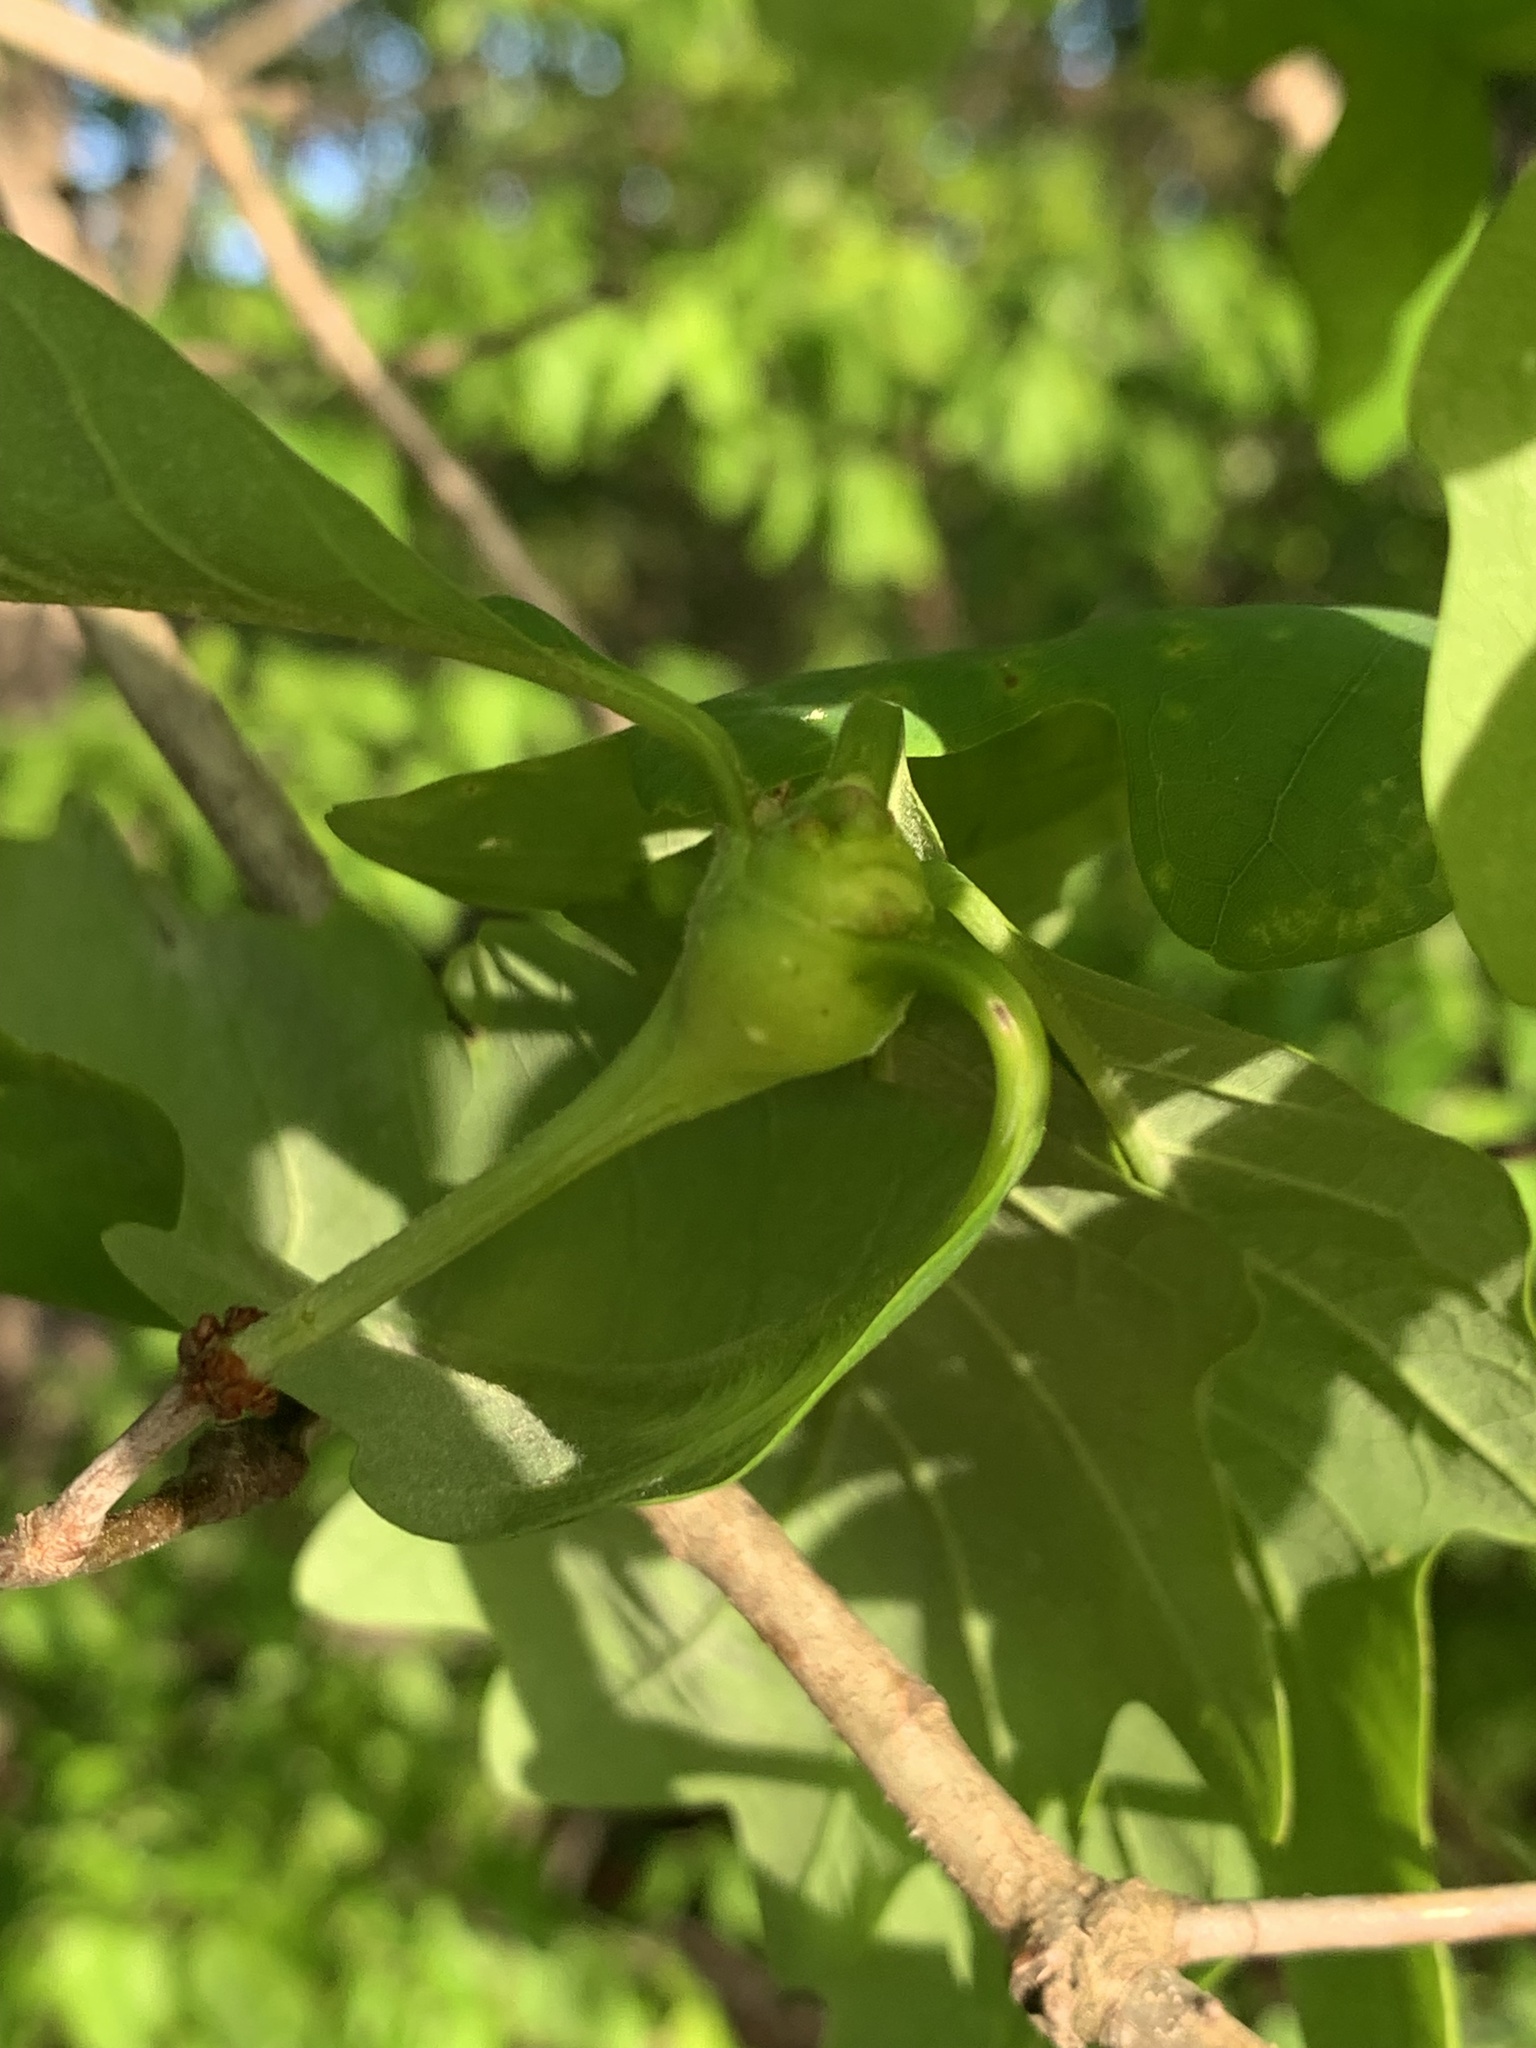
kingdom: Animalia
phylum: Arthropoda
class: Insecta
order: Hymenoptera
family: Cynipidae
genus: Callirhytis
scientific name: Callirhytis clavula
